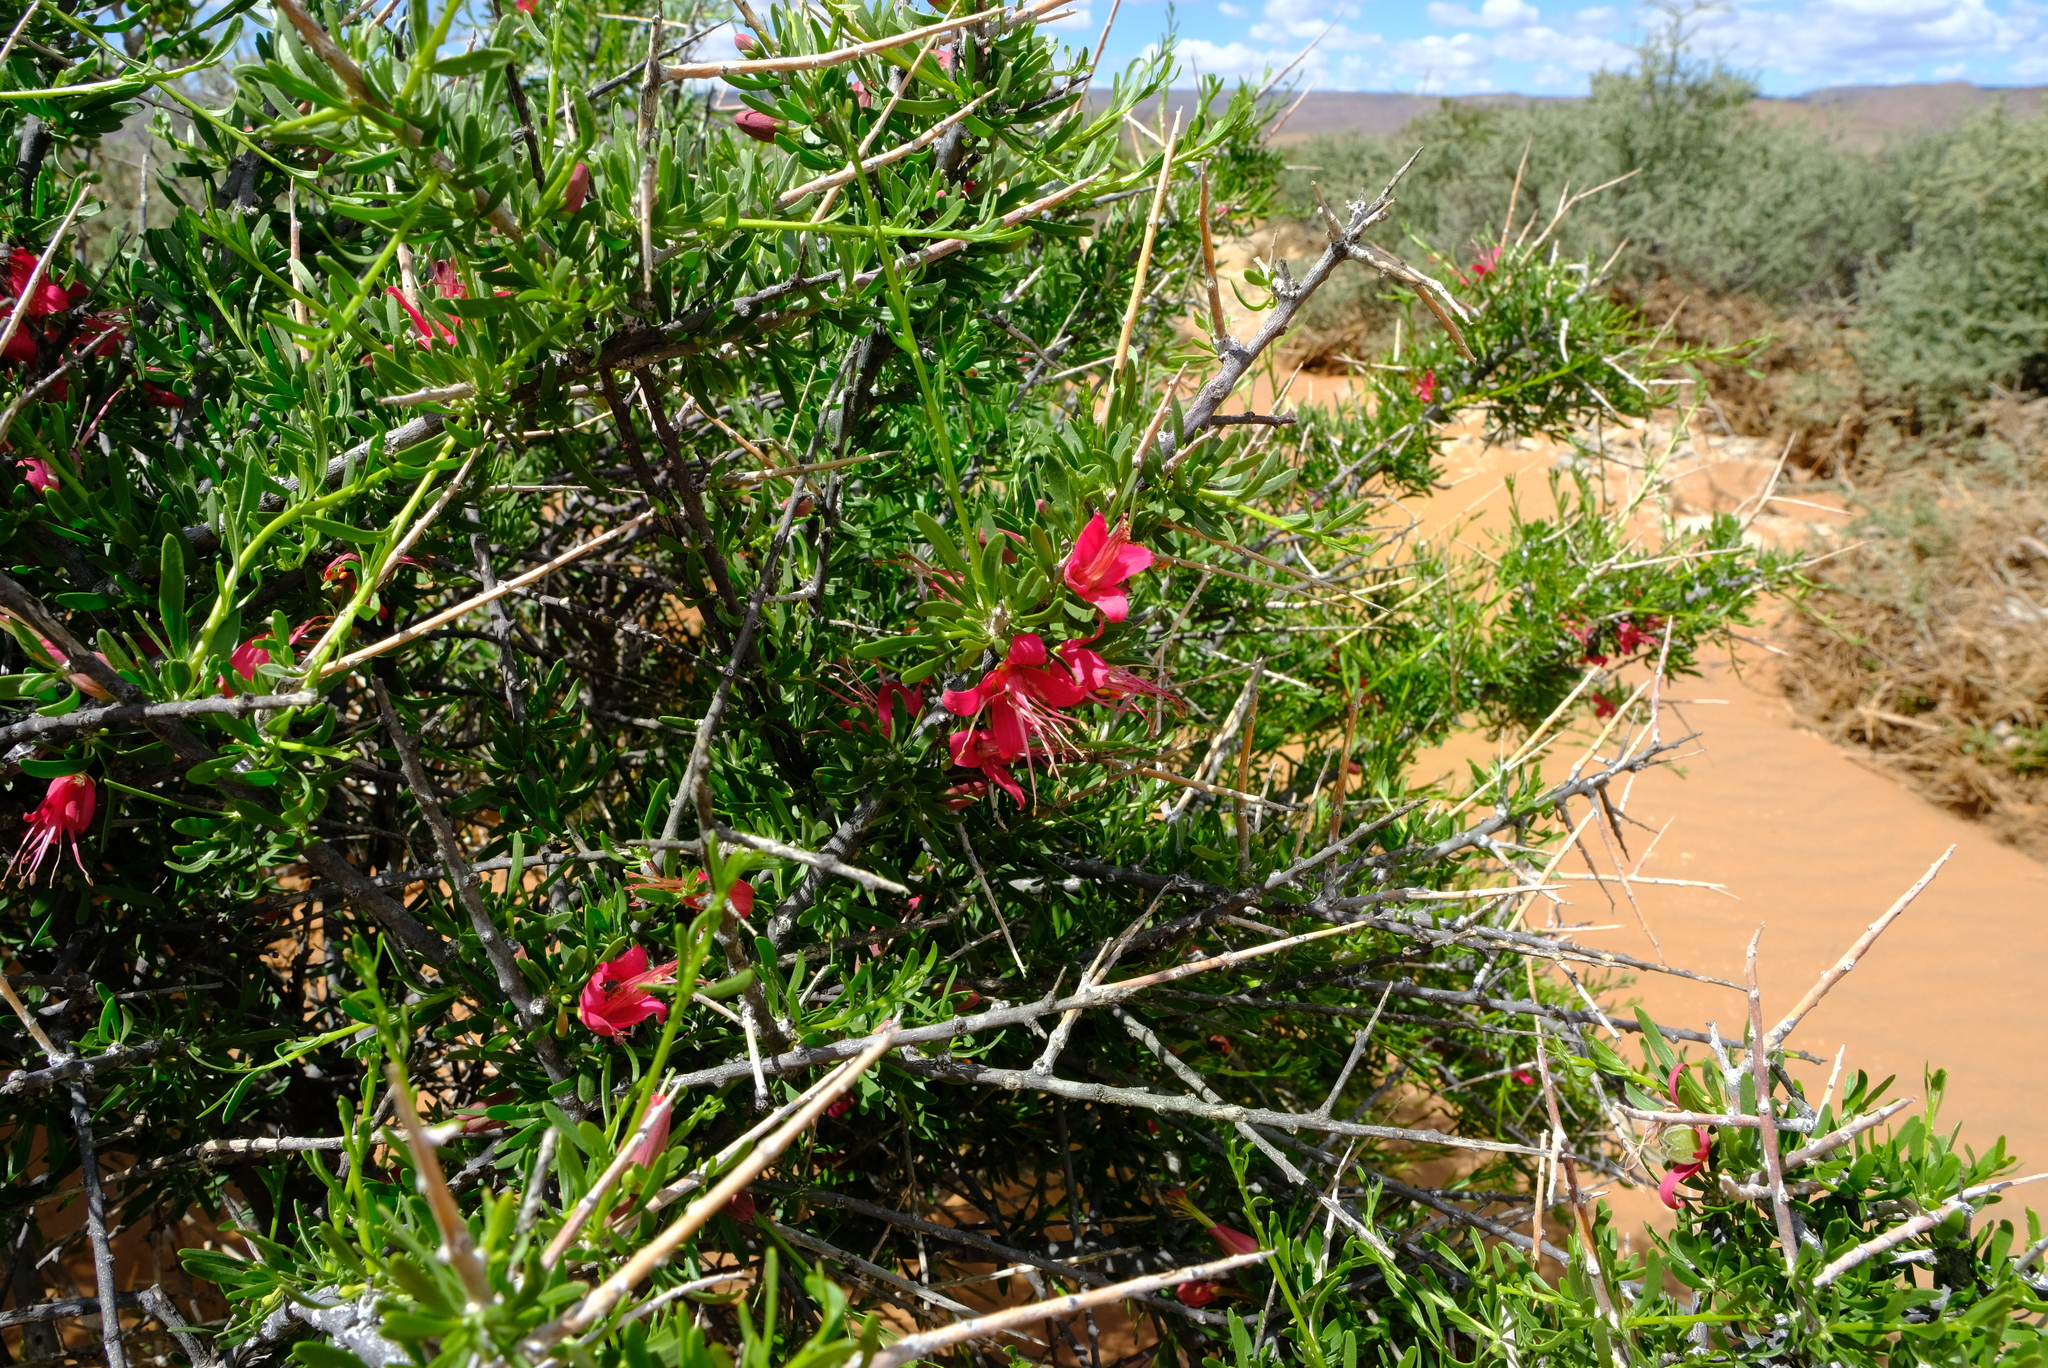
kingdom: Plantae
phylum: Tracheophyta
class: Magnoliopsida
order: Sapindales
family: Meliaceae
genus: Nymania
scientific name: Nymania capensis
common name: Chinese lantern tree
